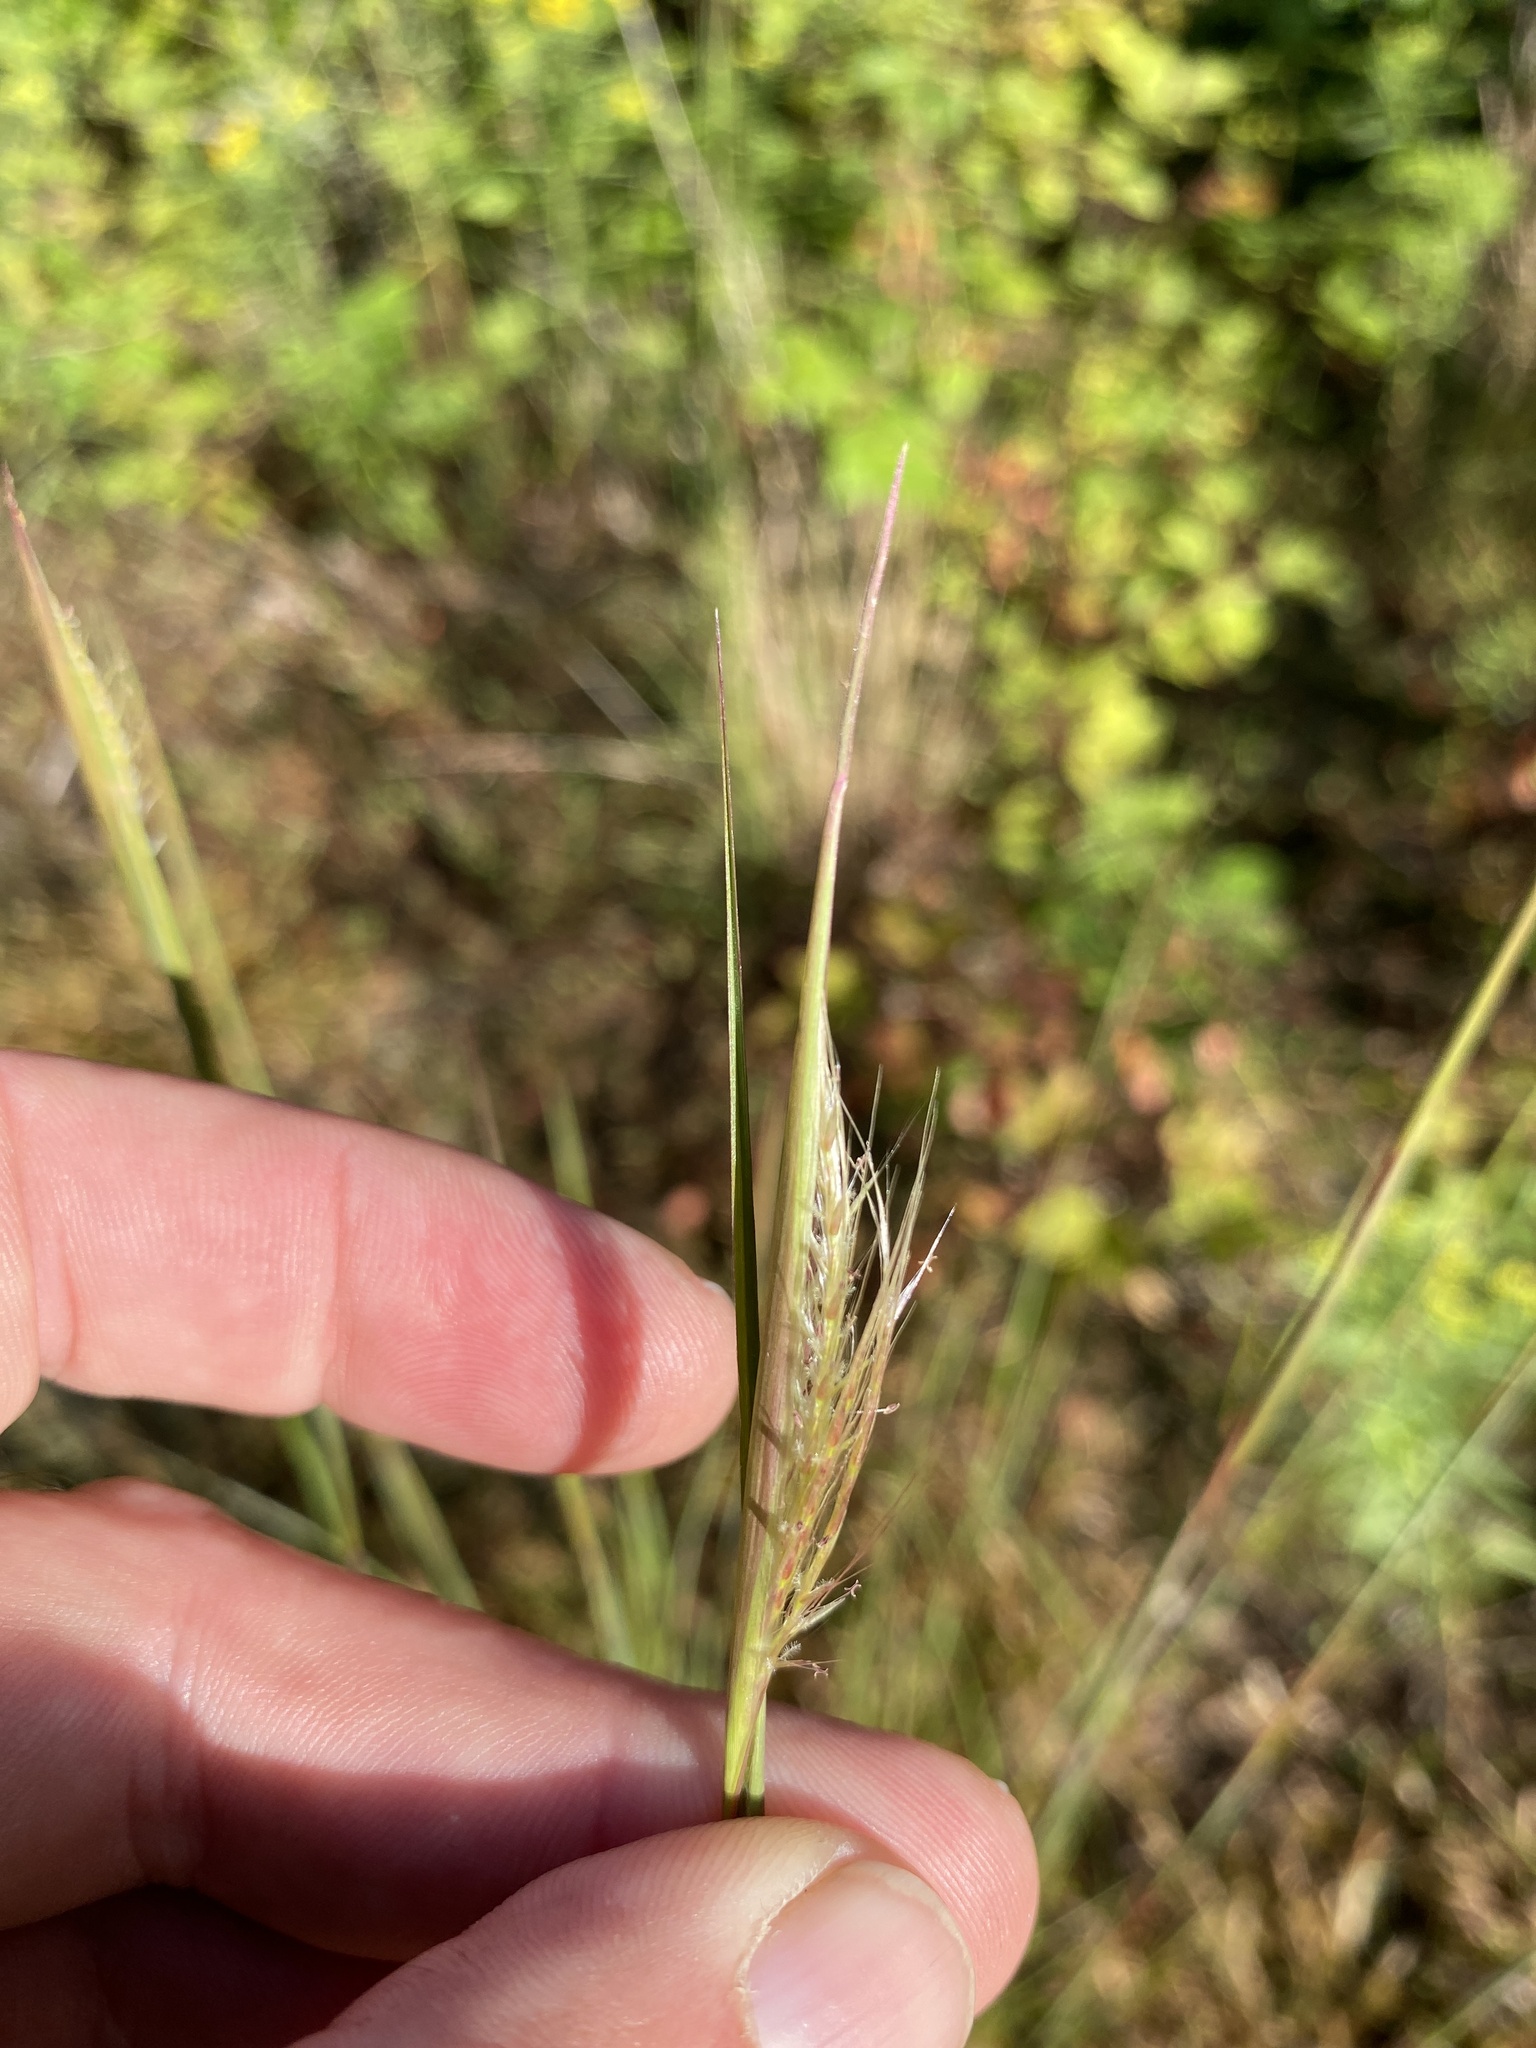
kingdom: Plantae
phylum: Tracheophyta
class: Liliopsida
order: Poales
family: Poaceae
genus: Schizachyrium
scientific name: Schizachyrium scoparium
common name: Little bluestem
